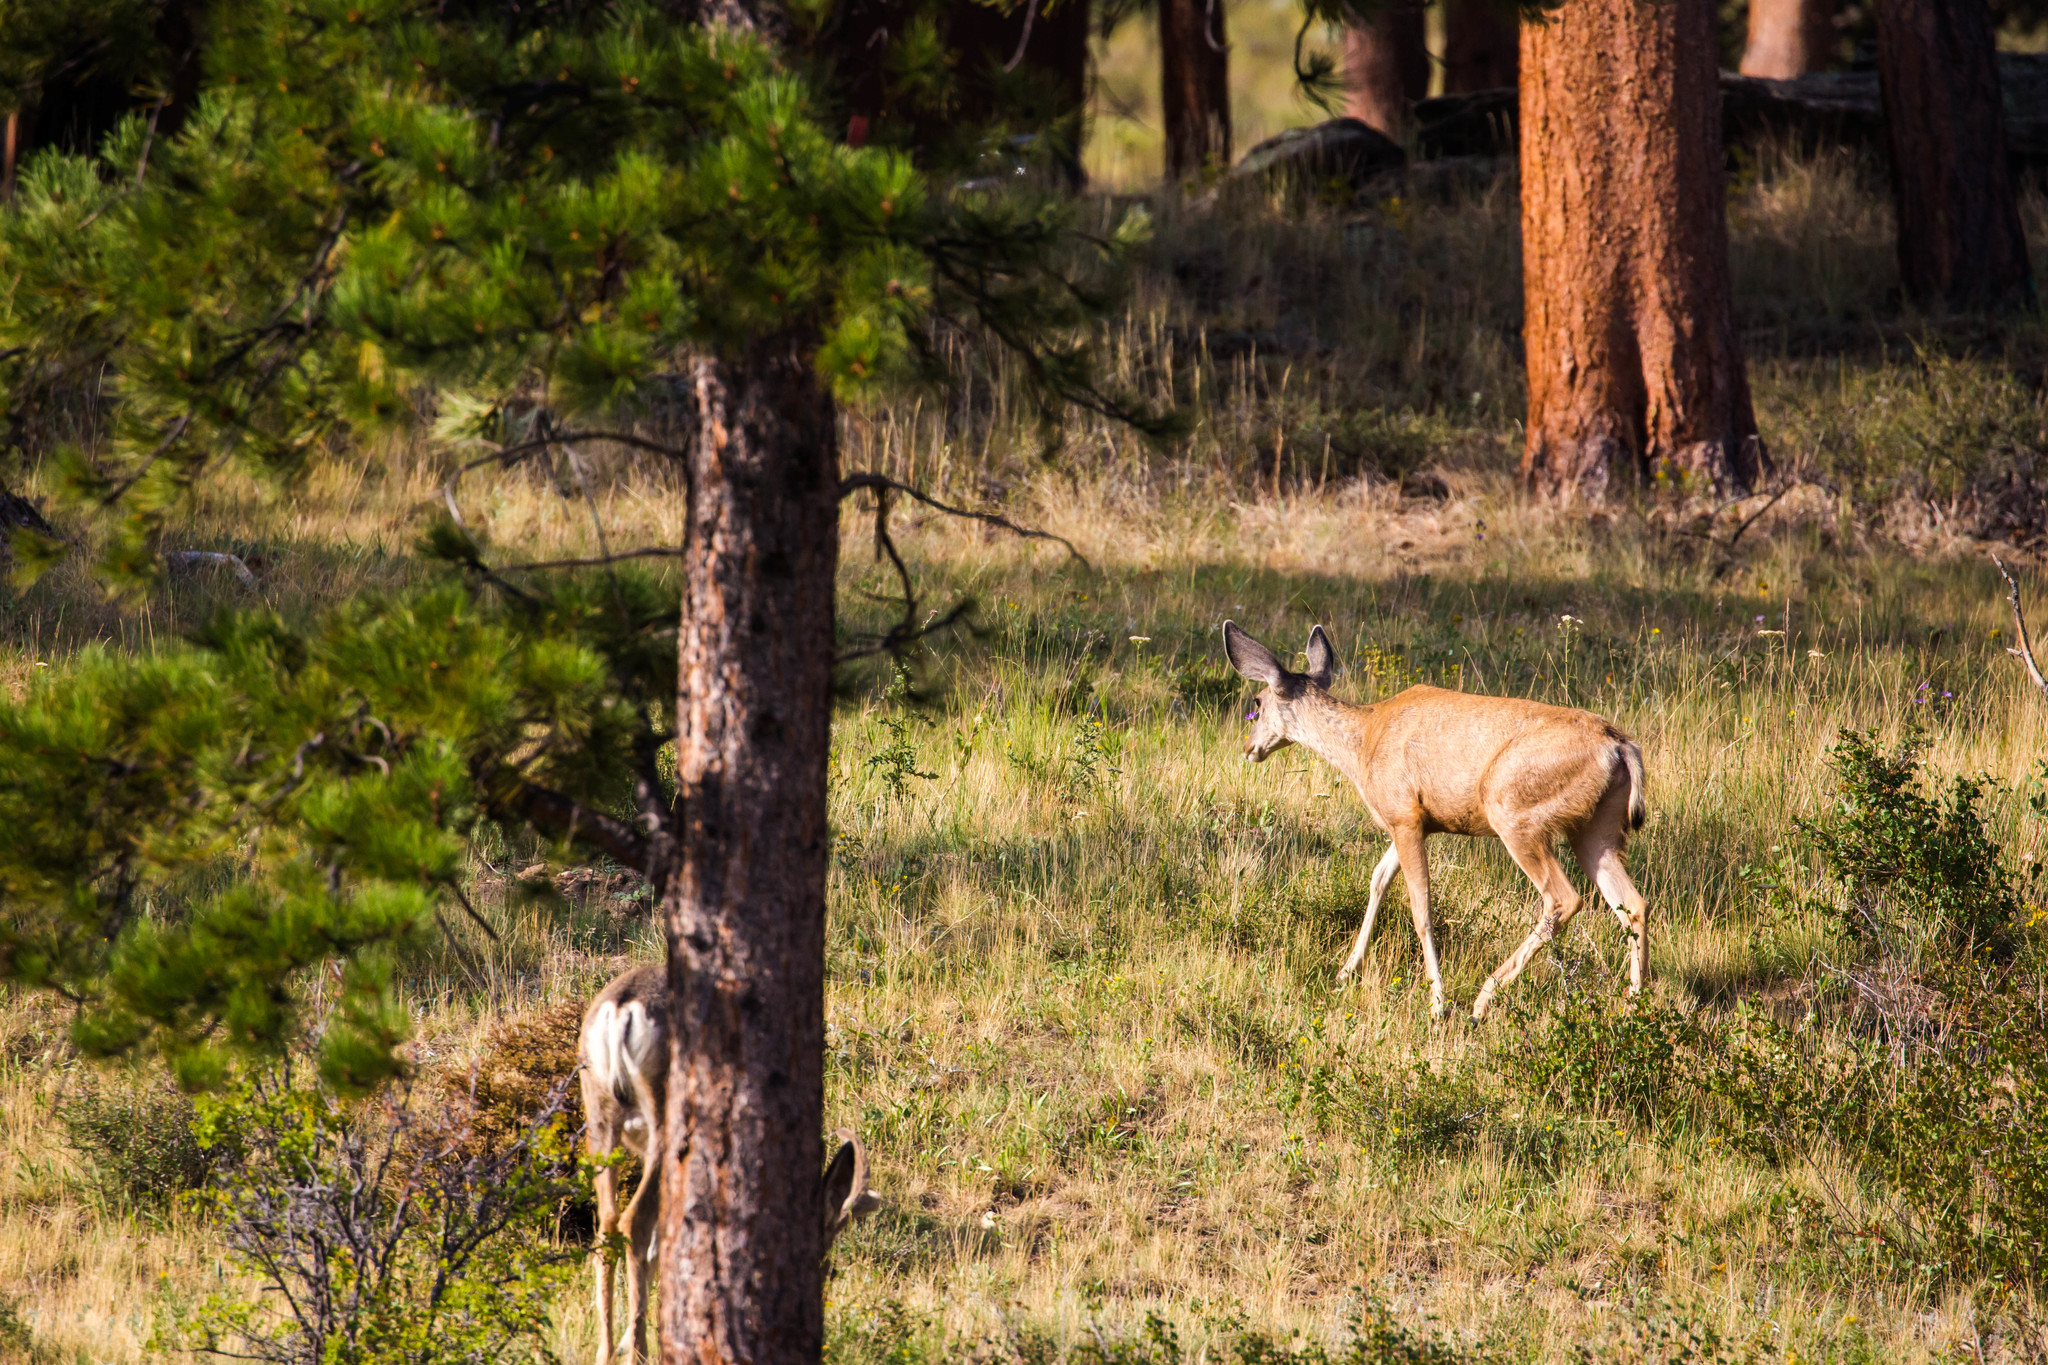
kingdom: Animalia
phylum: Chordata
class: Mammalia
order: Artiodactyla
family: Cervidae
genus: Odocoileus
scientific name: Odocoileus hemionus
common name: Mule deer
